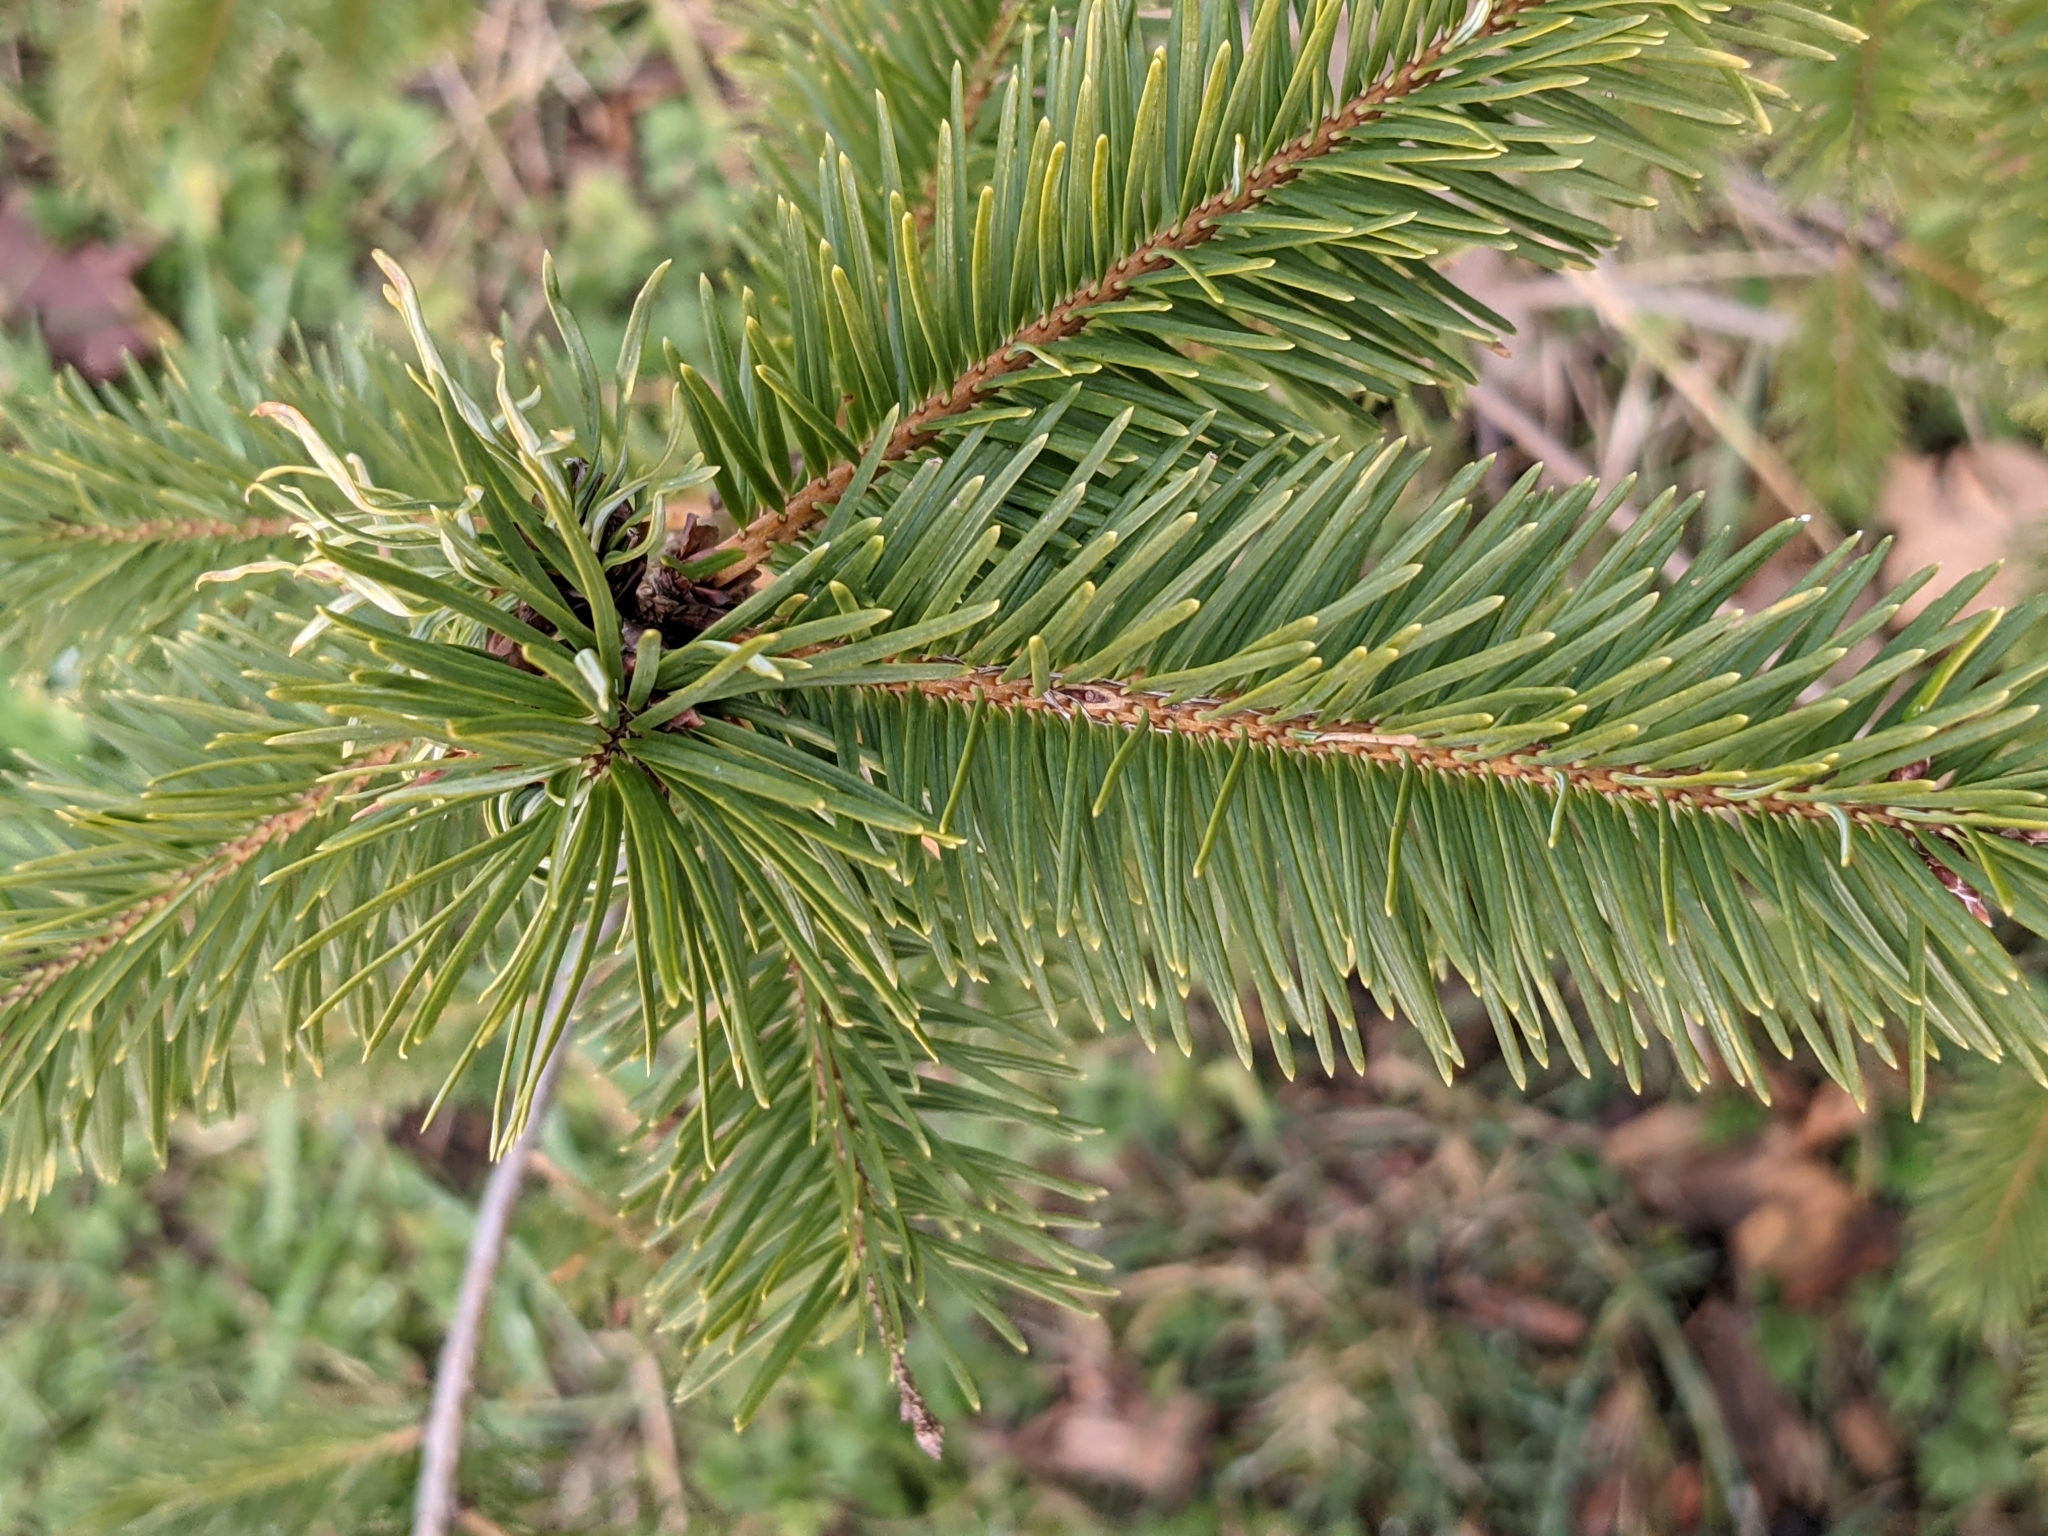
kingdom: Plantae
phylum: Tracheophyta
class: Pinopsida
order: Pinales
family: Pinaceae
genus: Pseudotsuga
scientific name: Pseudotsuga menziesii
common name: Douglas fir
